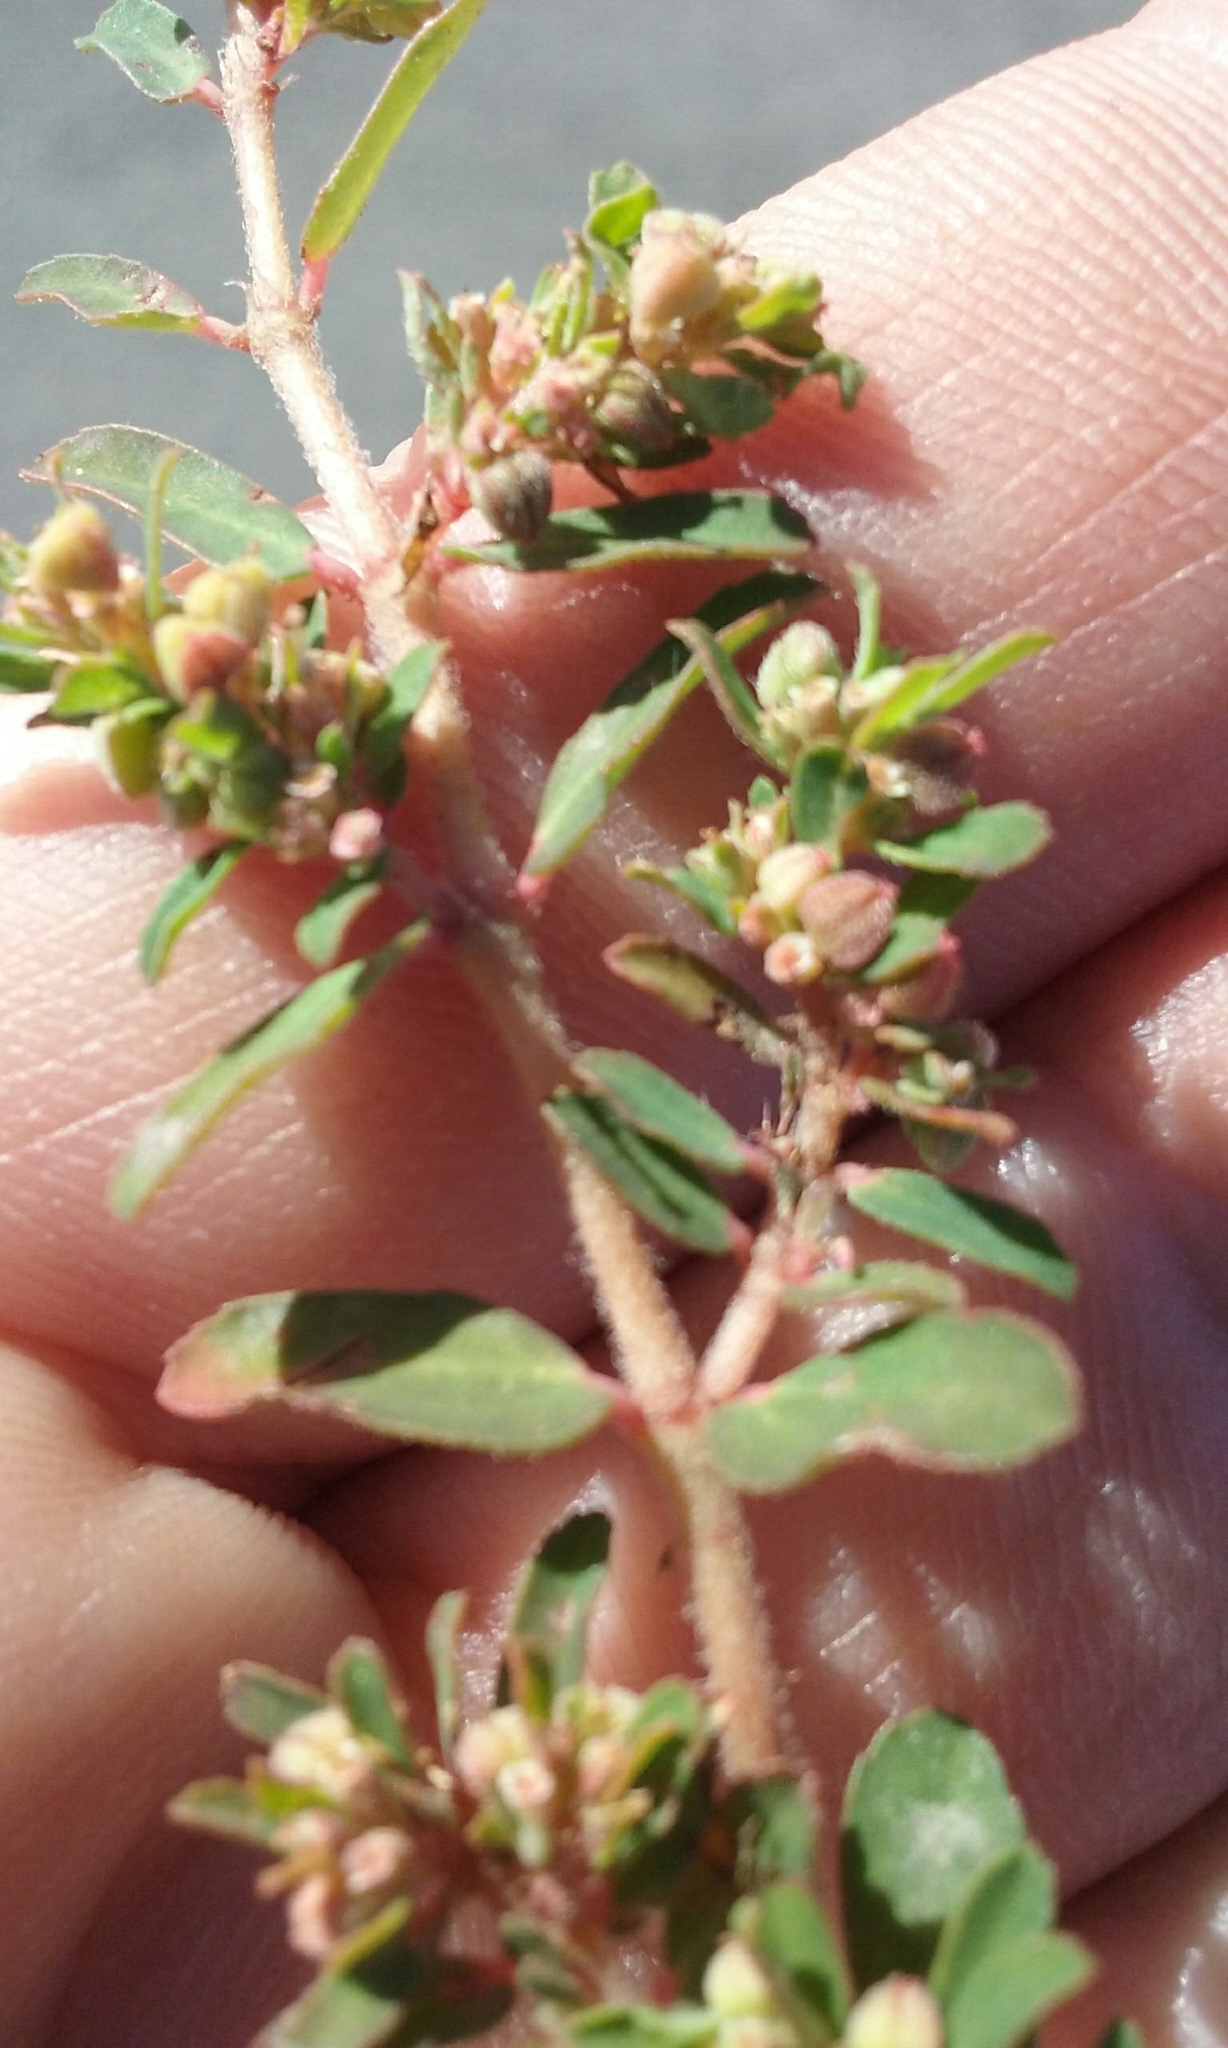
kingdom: Plantae
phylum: Tracheophyta
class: Magnoliopsida
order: Malpighiales
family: Euphorbiaceae
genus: Euphorbia
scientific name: Euphorbia maculata
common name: Spotted spurge
